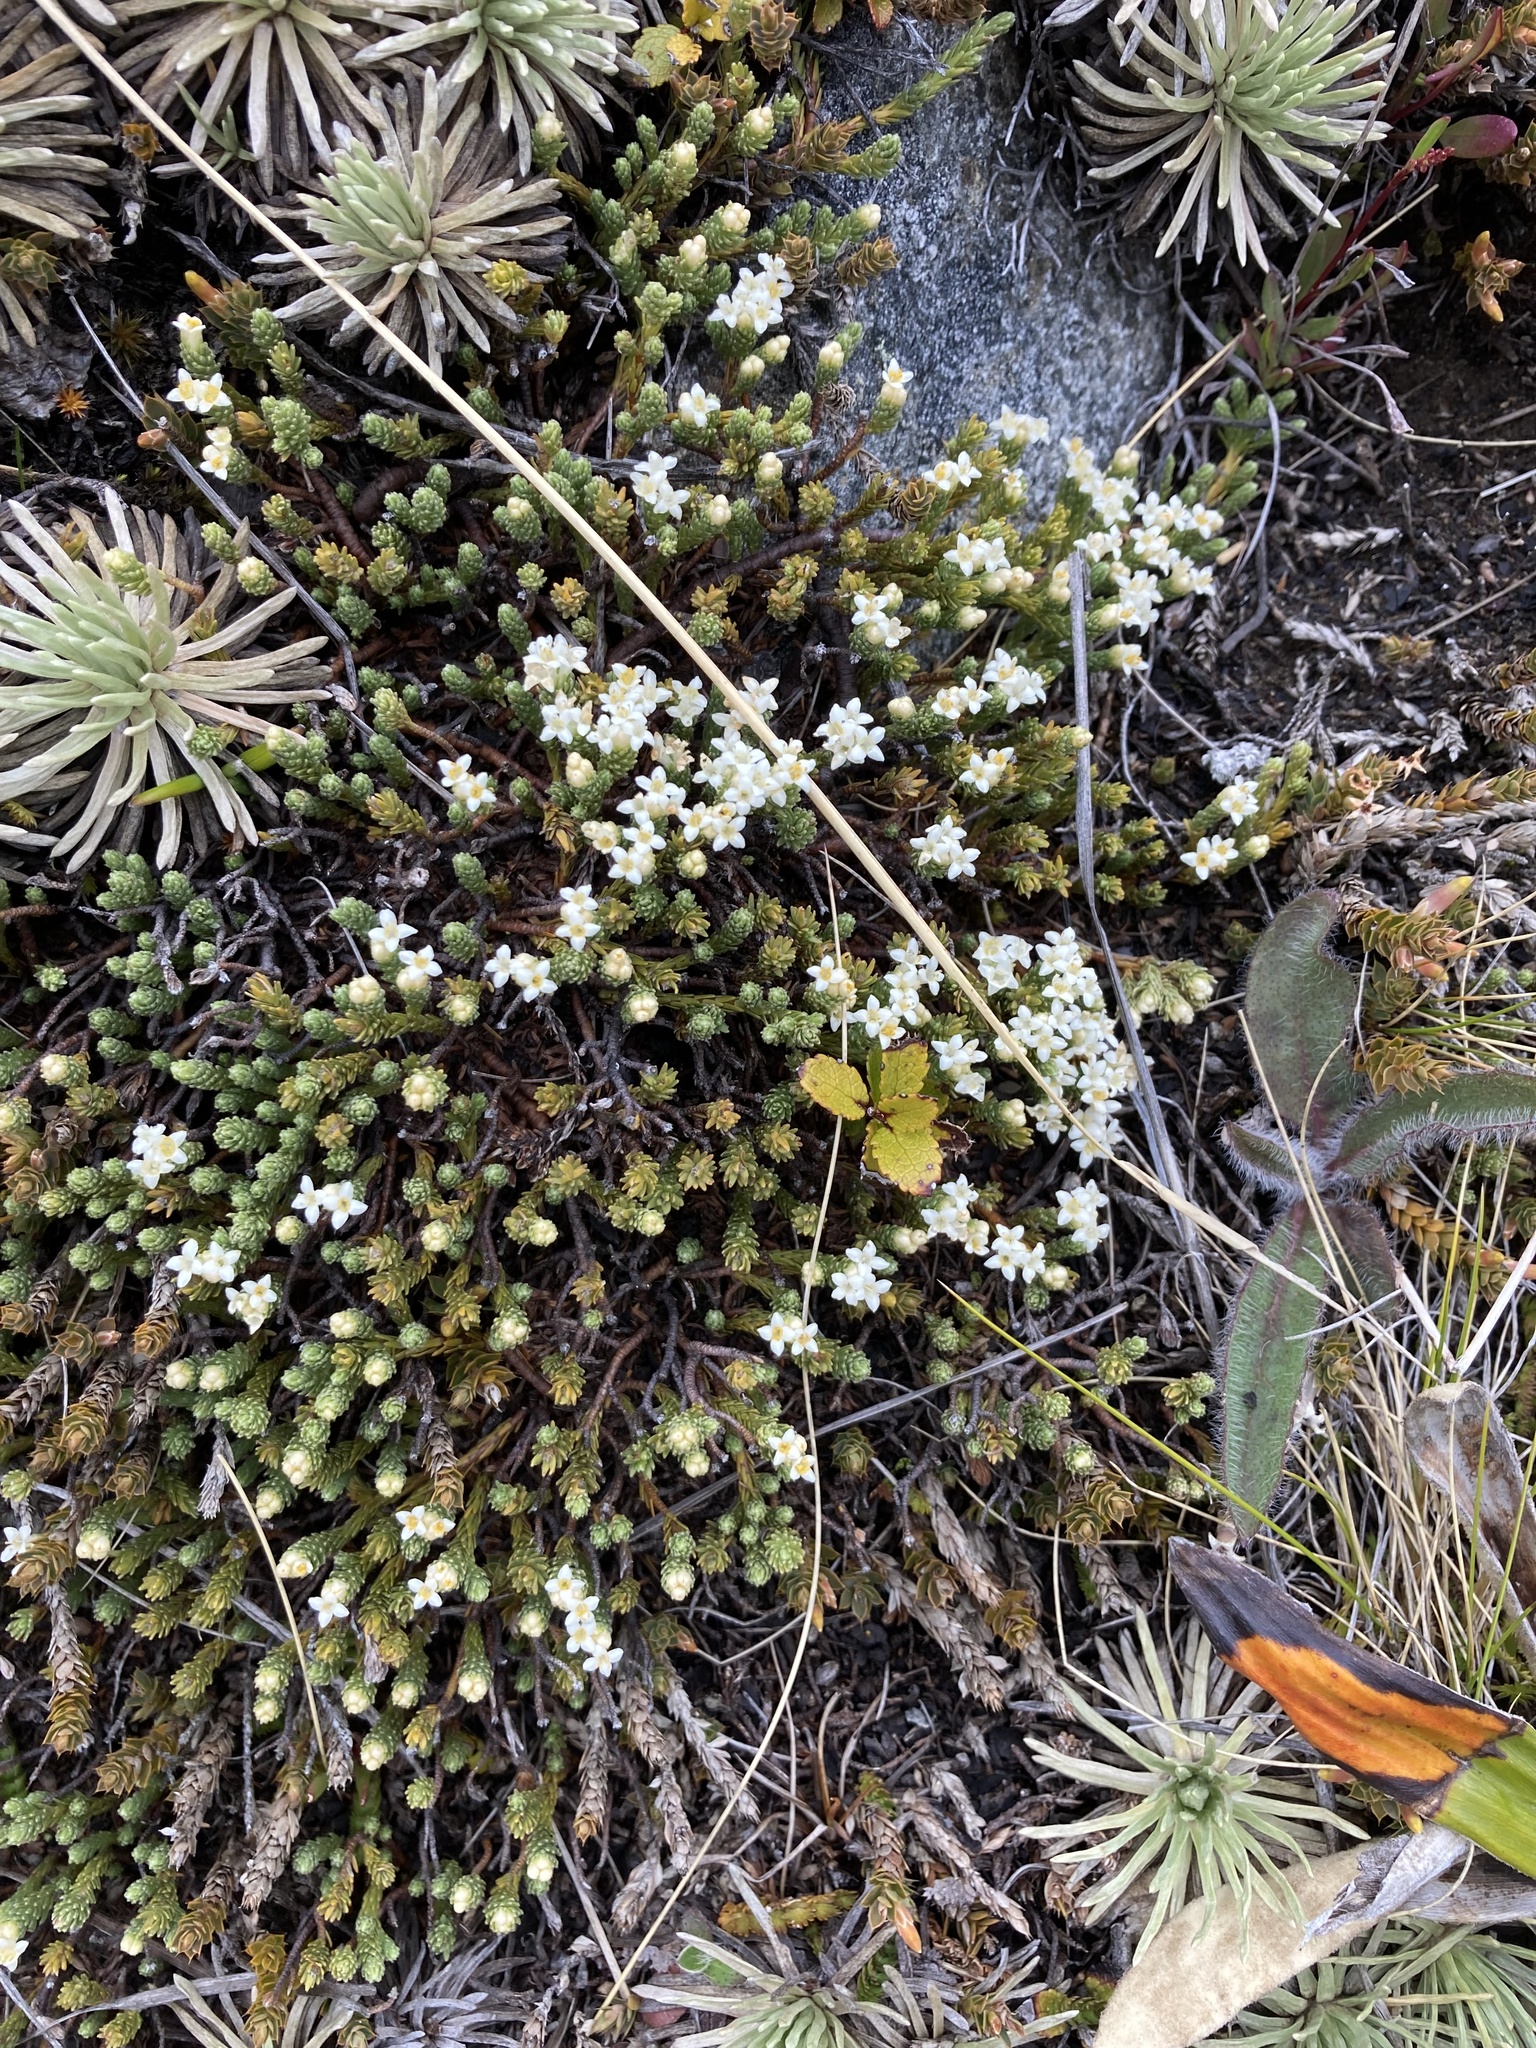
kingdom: Plantae
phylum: Tracheophyta
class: Magnoliopsida
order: Malvales
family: Thymelaeaceae
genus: Kelleria
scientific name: Kelleria dieffenbachii
